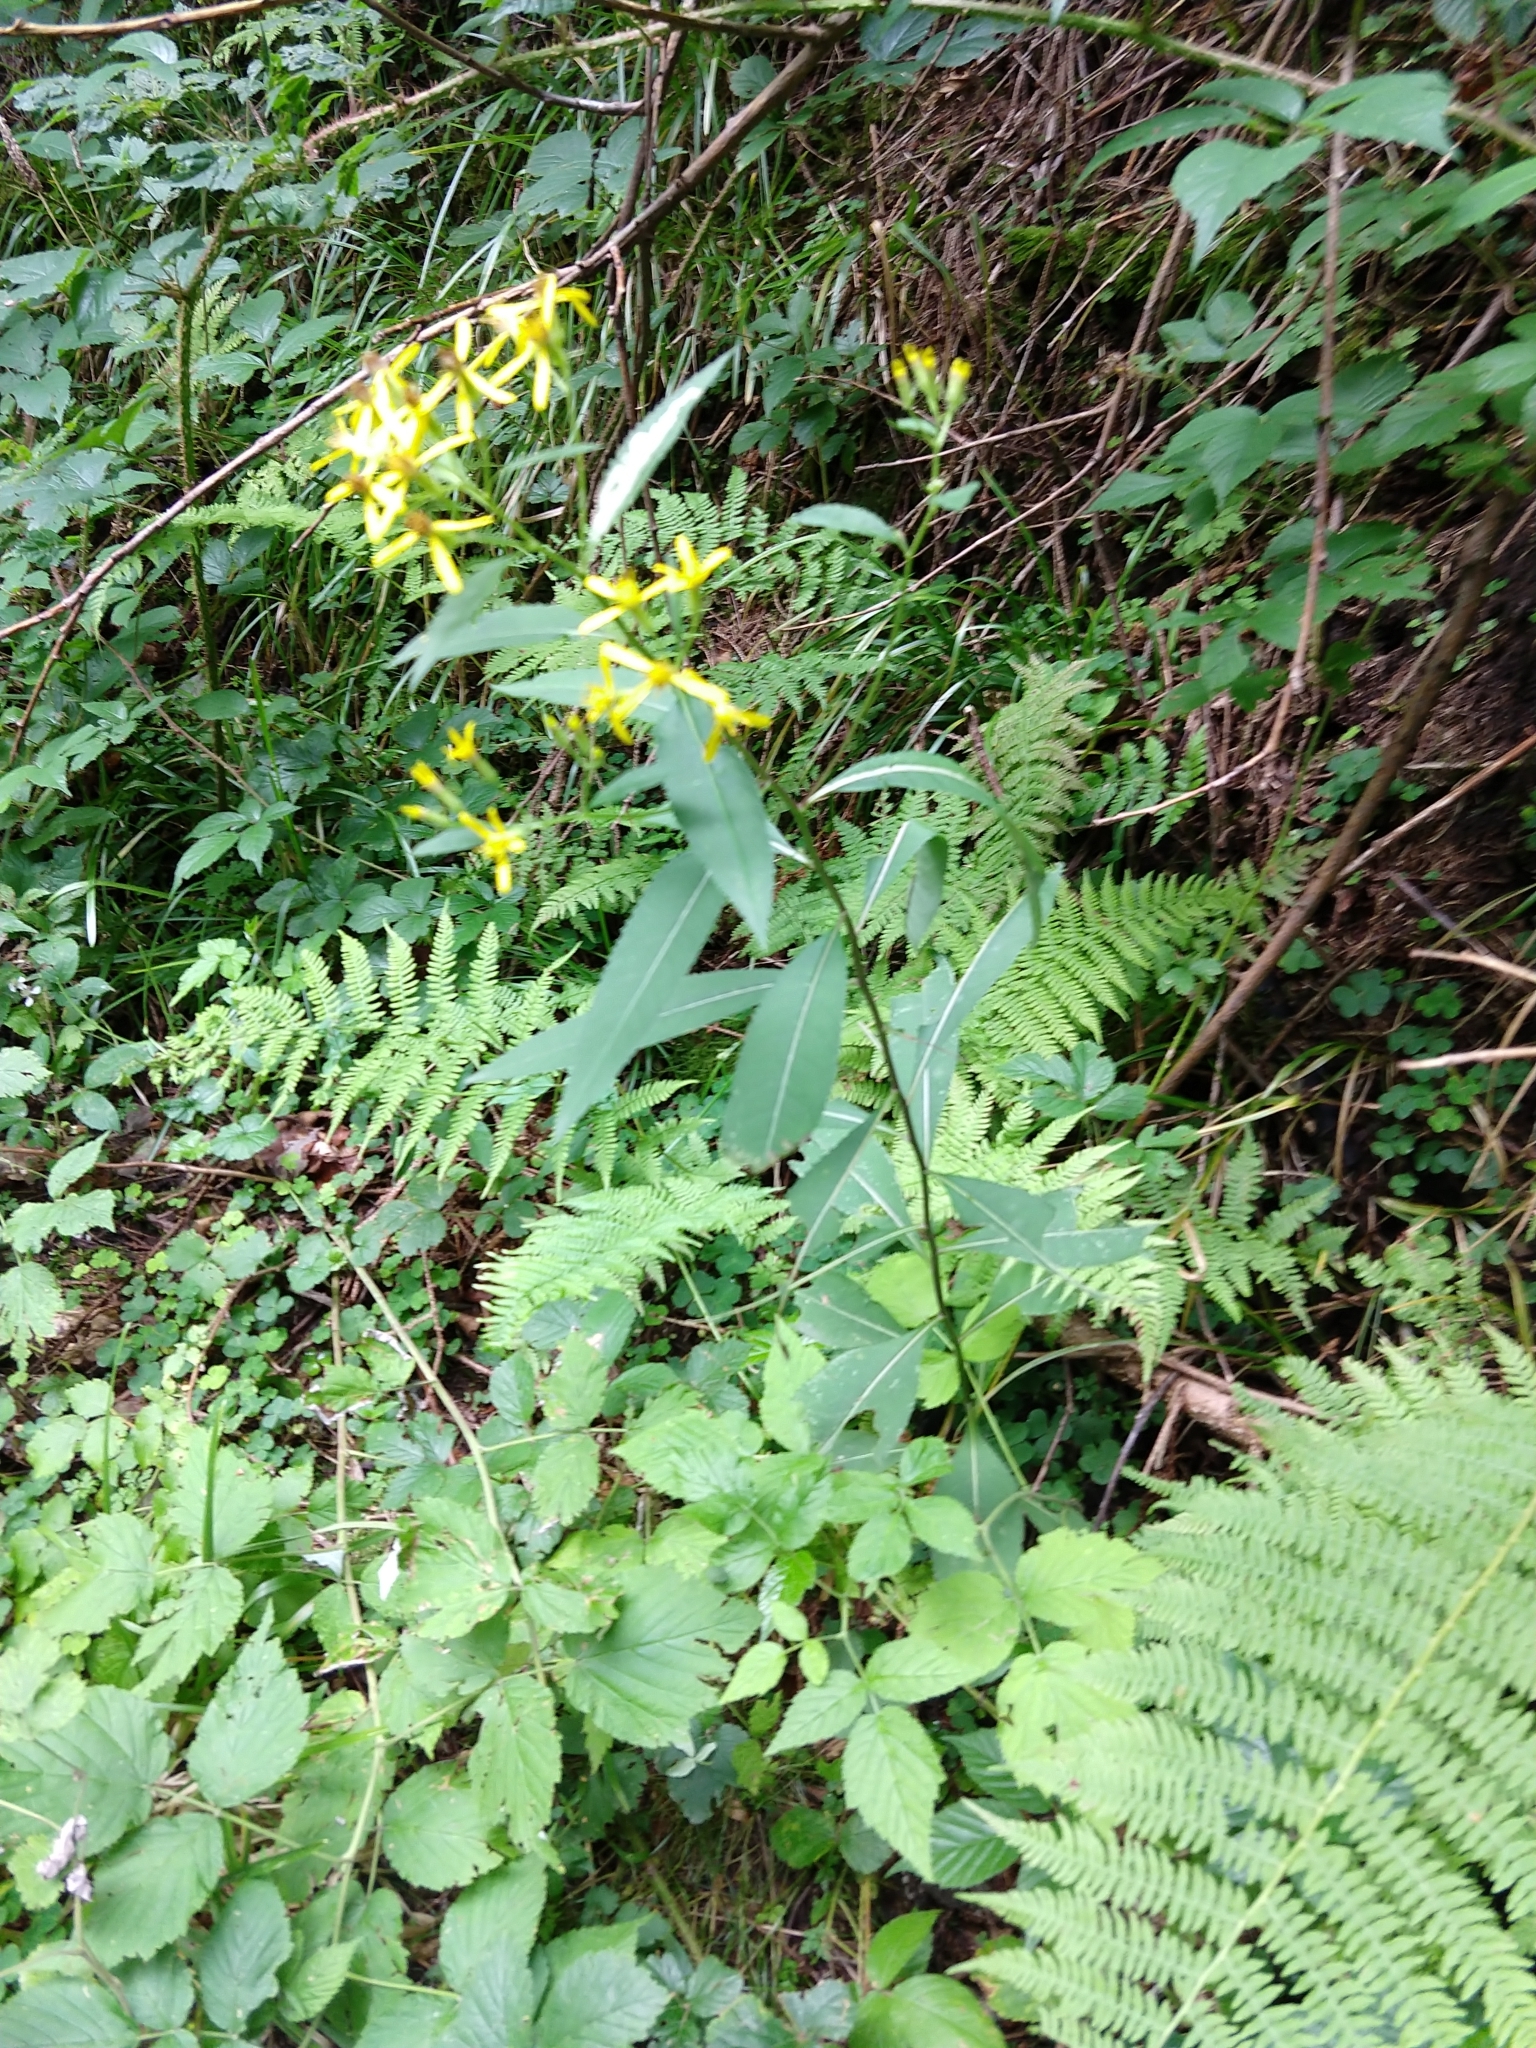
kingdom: Plantae
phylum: Tracheophyta
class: Magnoliopsida
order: Asterales
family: Asteraceae
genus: Senecio
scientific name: Senecio ovatus
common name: Wood ragwort
